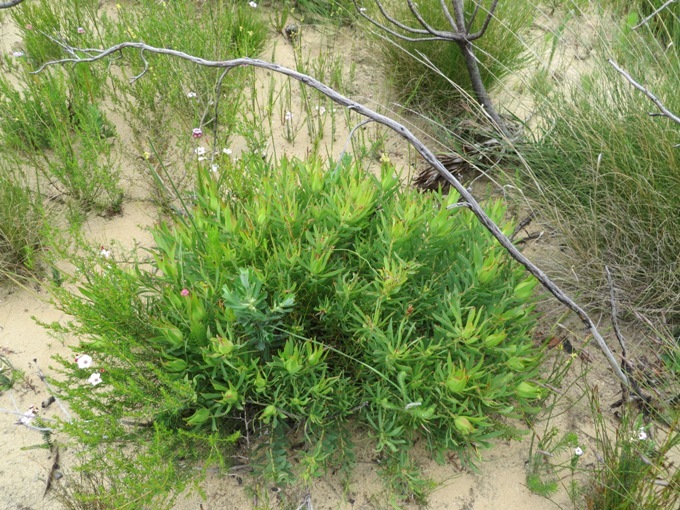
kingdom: Plantae
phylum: Tracheophyta
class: Magnoliopsida
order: Proteales
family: Proteaceae
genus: Leucadendron
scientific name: Leucadendron salignum
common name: Common sunshine conebush
